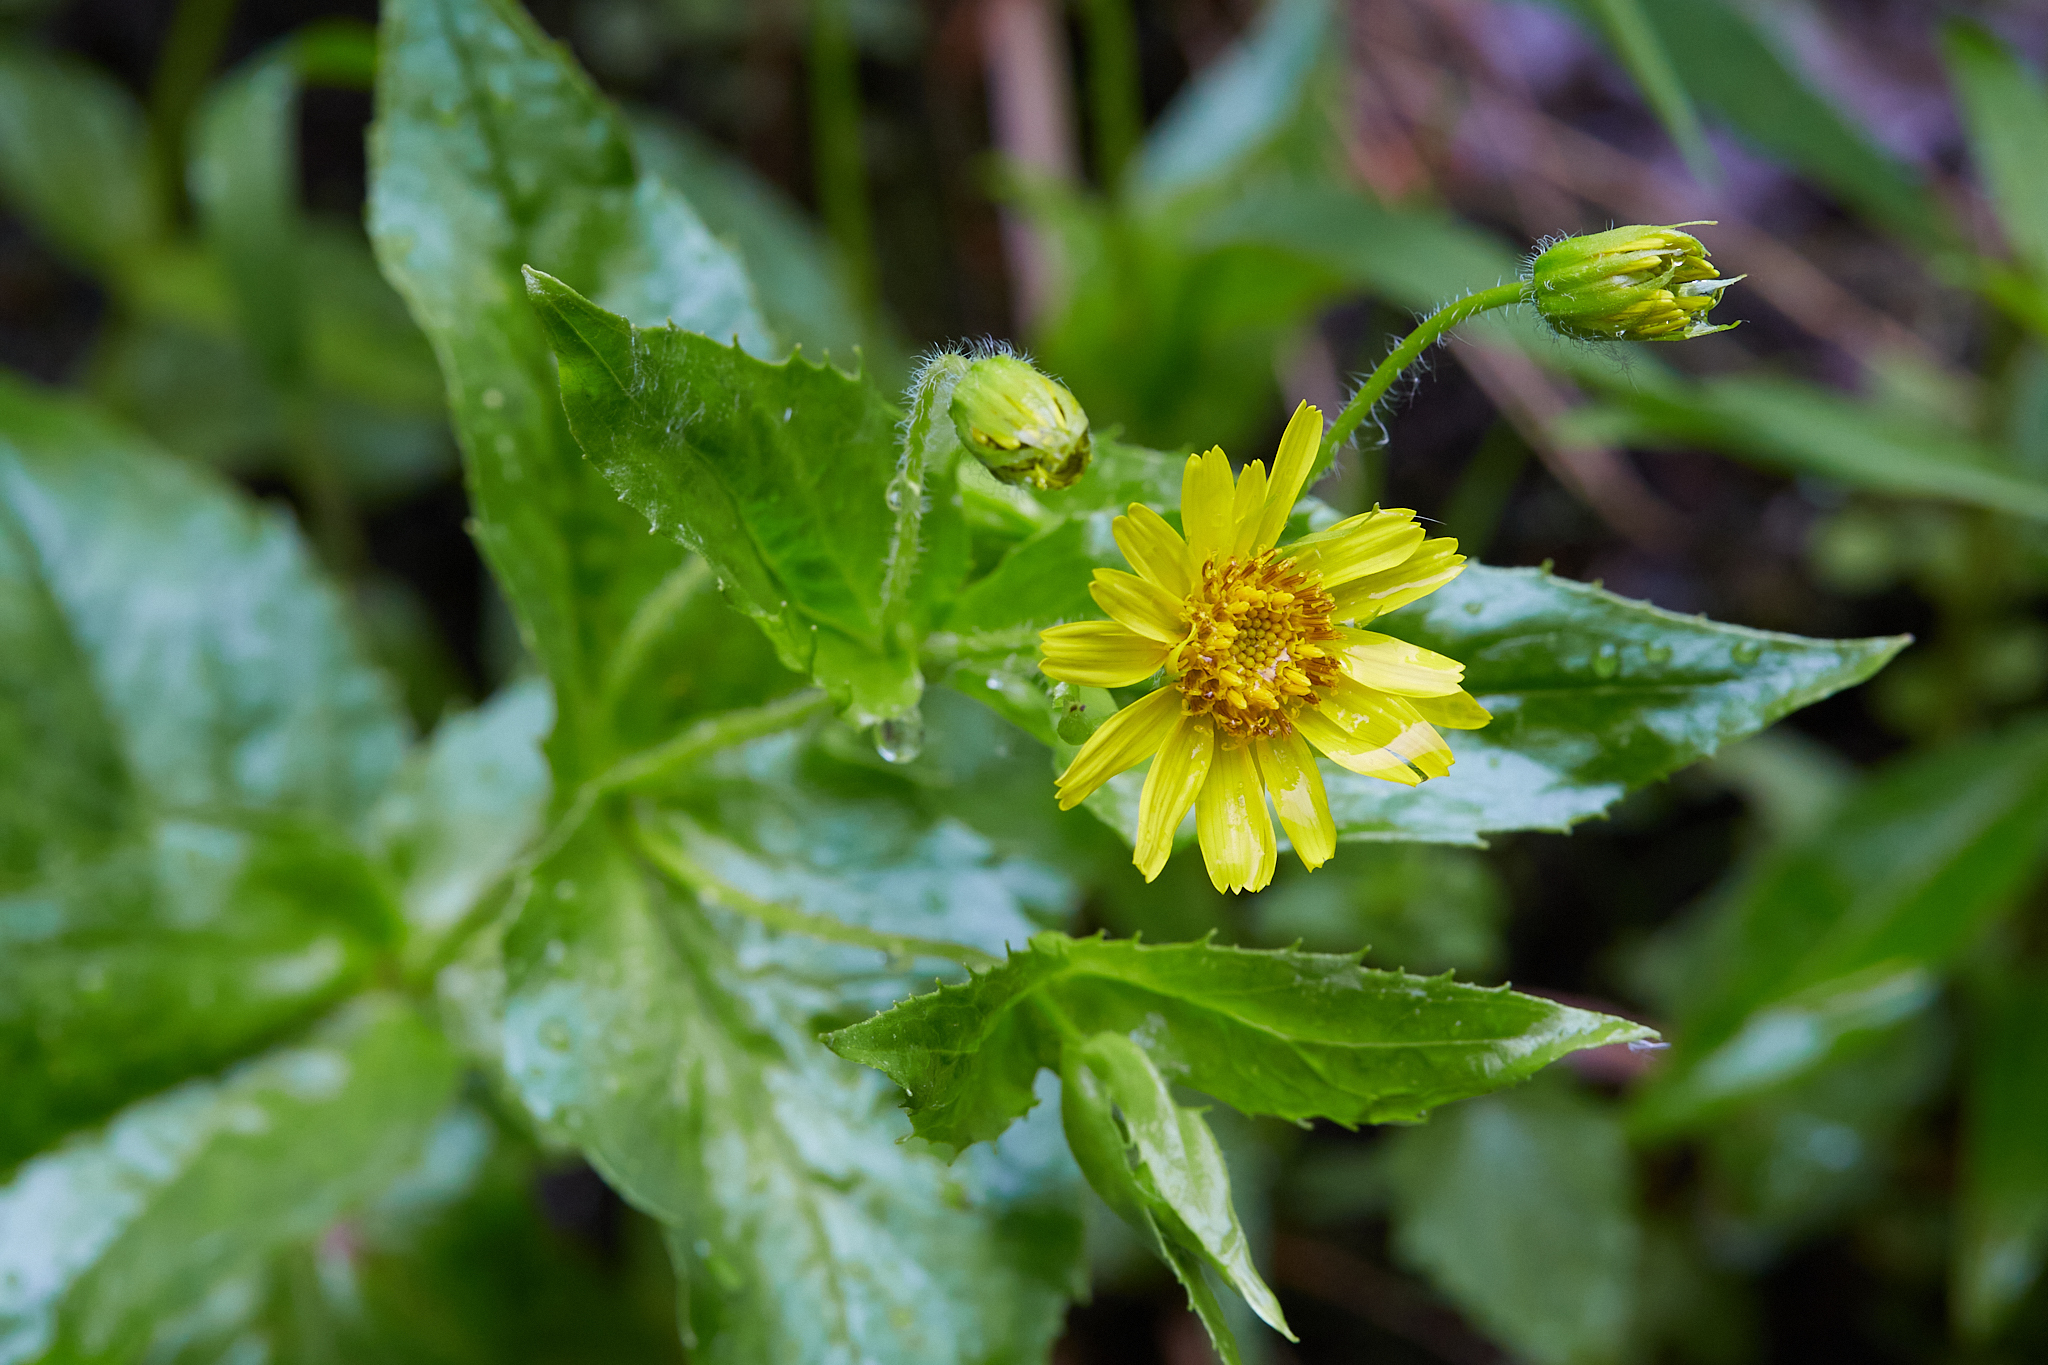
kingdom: Plantae
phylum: Tracheophyta
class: Magnoliopsida
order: Asterales
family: Asteraceae
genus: Arnica
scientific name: Arnica lanceolata
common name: Lance-leaved arnica
